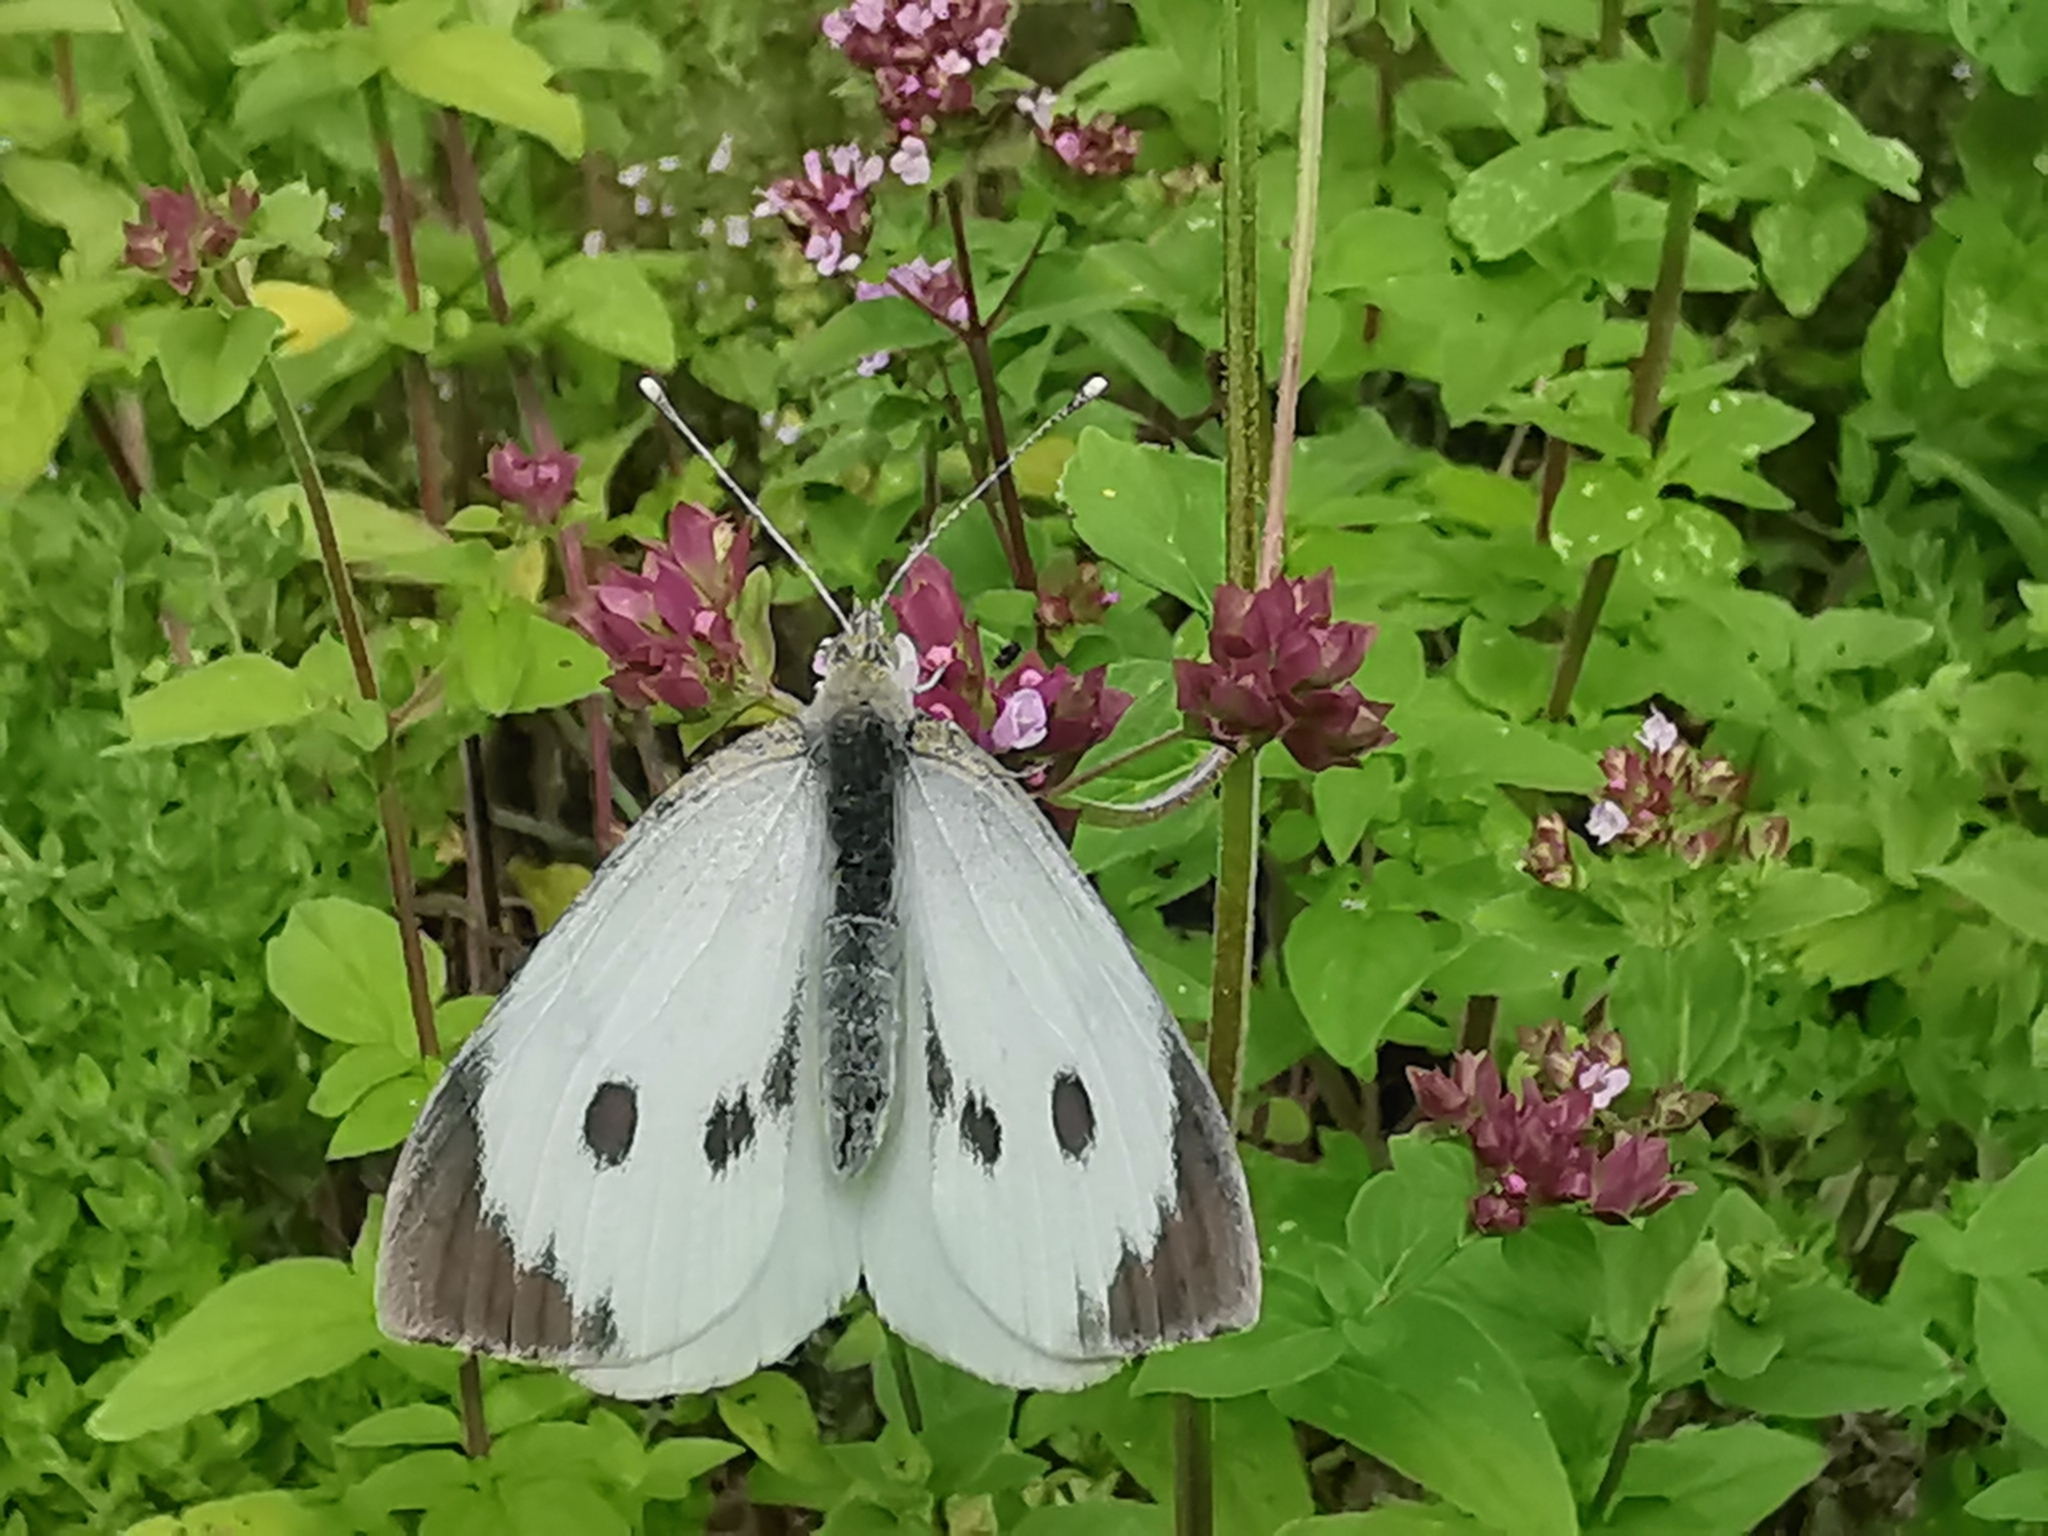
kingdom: Animalia
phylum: Arthropoda
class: Insecta
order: Lepidoptera
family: Pieridae
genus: Pieris
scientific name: Pieris brassicae
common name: Large white
